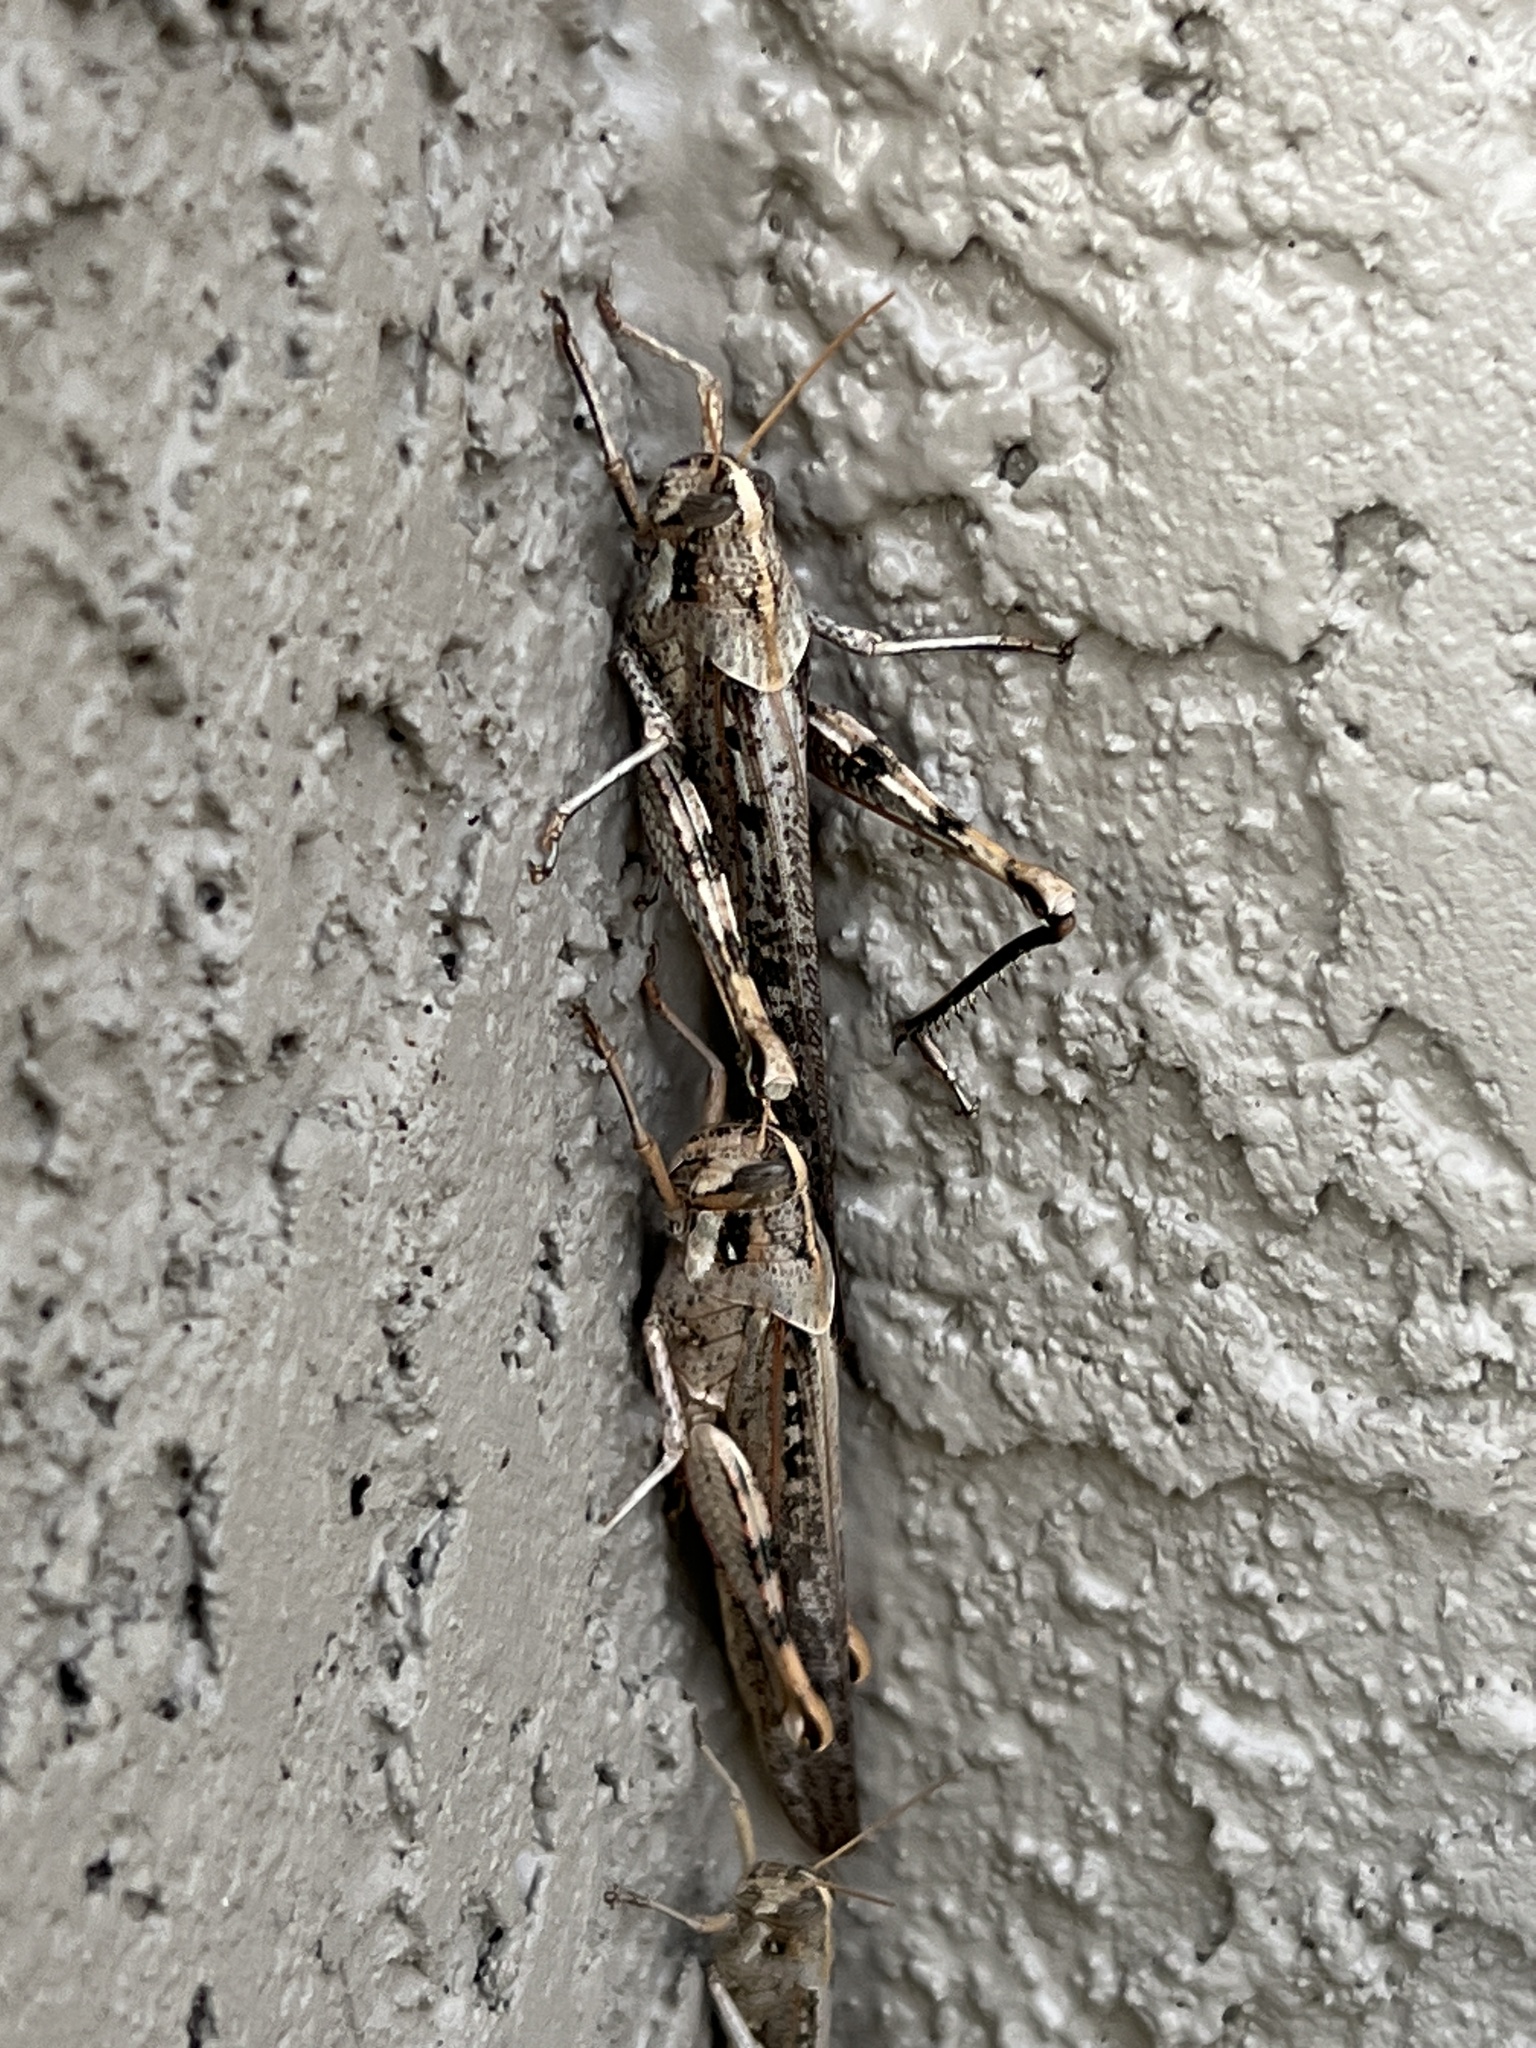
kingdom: Animalia
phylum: Arthropoda
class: Insecta
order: Orthoptera
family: Acrididae
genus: Schistocerca
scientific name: Schistocerca nitens
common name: Vagrant grasshopper
